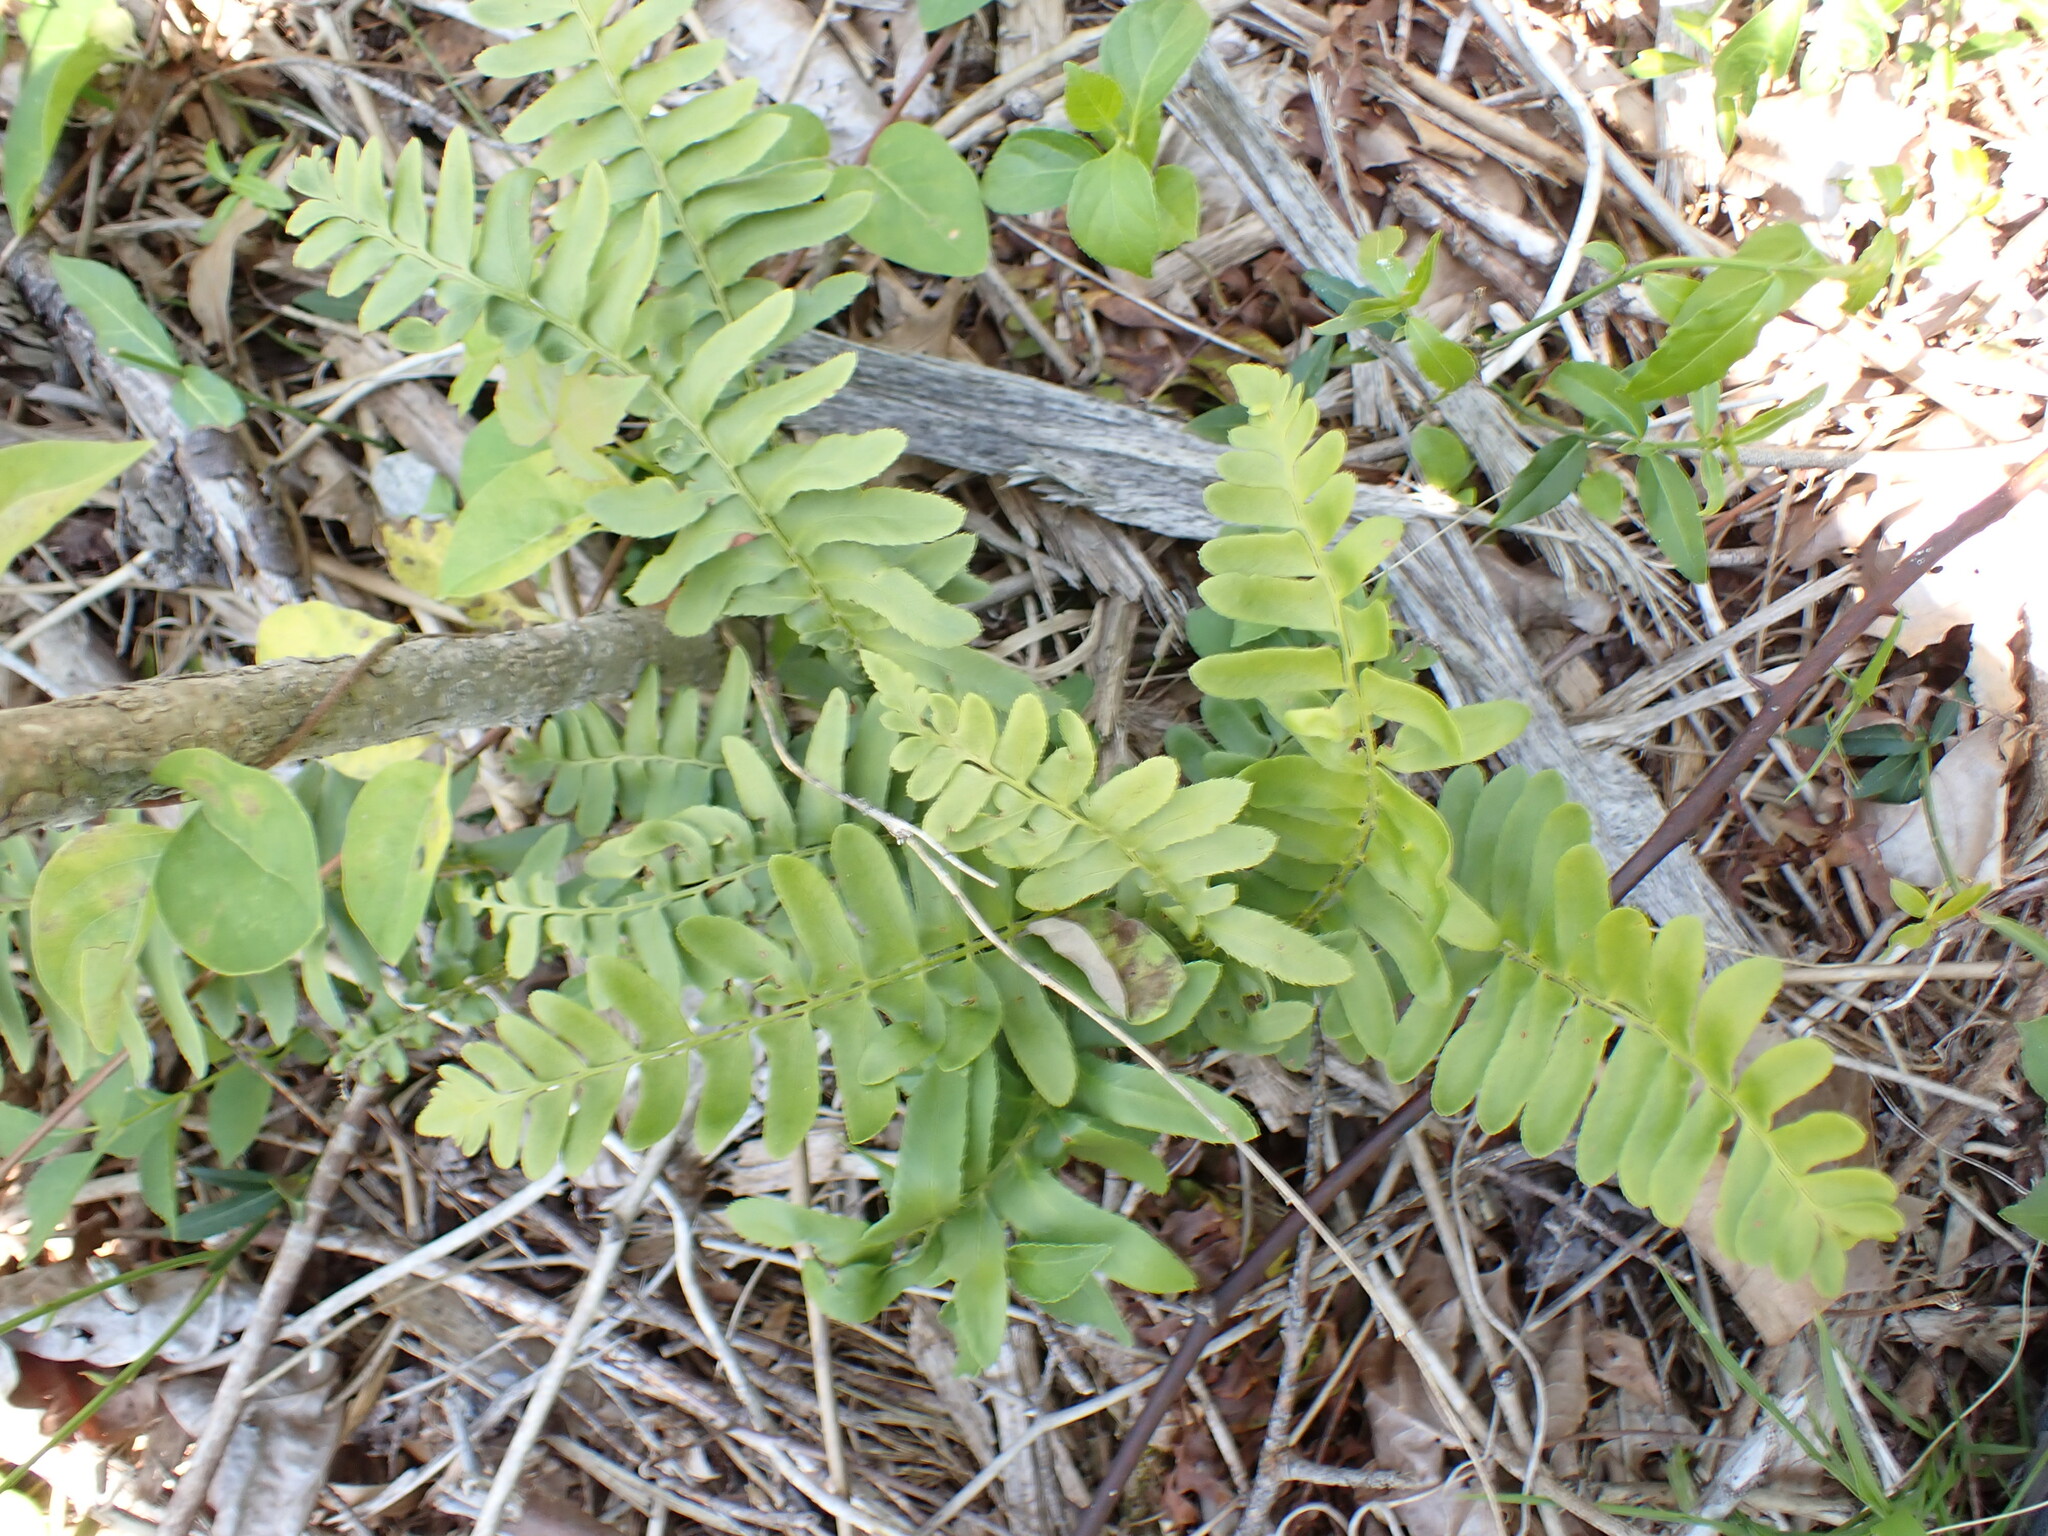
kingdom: Plantae
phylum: Tracheophyta
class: Polypodiopsida
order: Polypodiales
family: Dryopteridaceae
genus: Polystichum
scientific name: Polystichum acrostichoides
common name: Christmas fern
